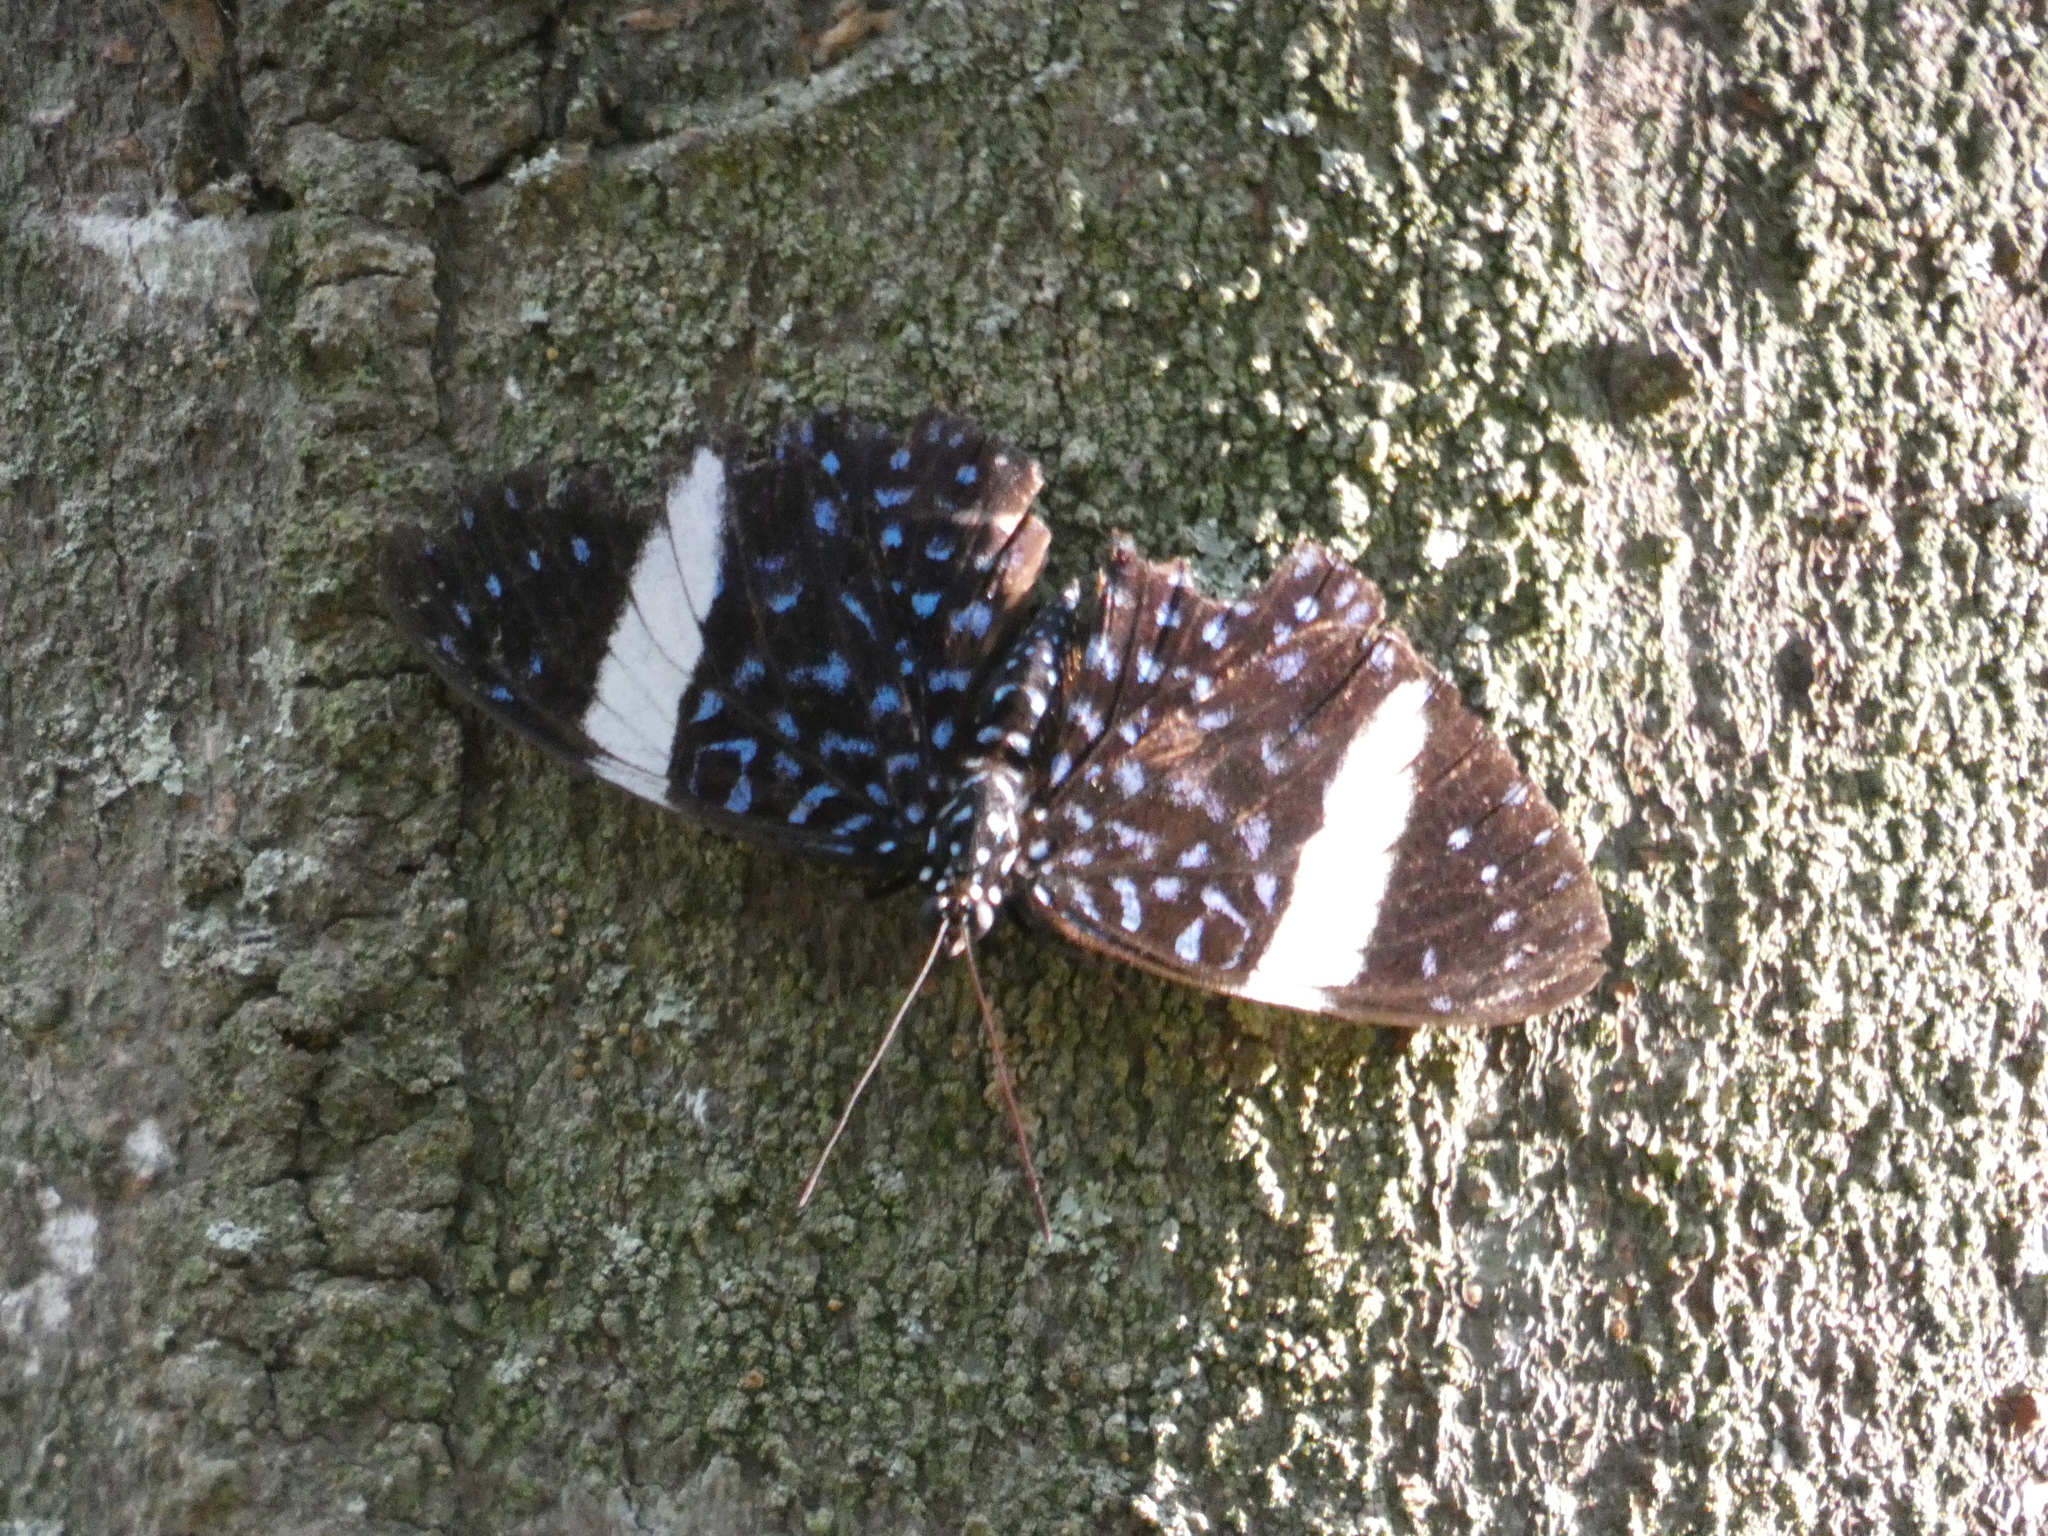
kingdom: Animalia
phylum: Arthropoda
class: Insecta
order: Lepidoptera
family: Nymphalidae
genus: Hamadryas
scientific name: Hamadryas laodamia
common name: Starry night cracker
